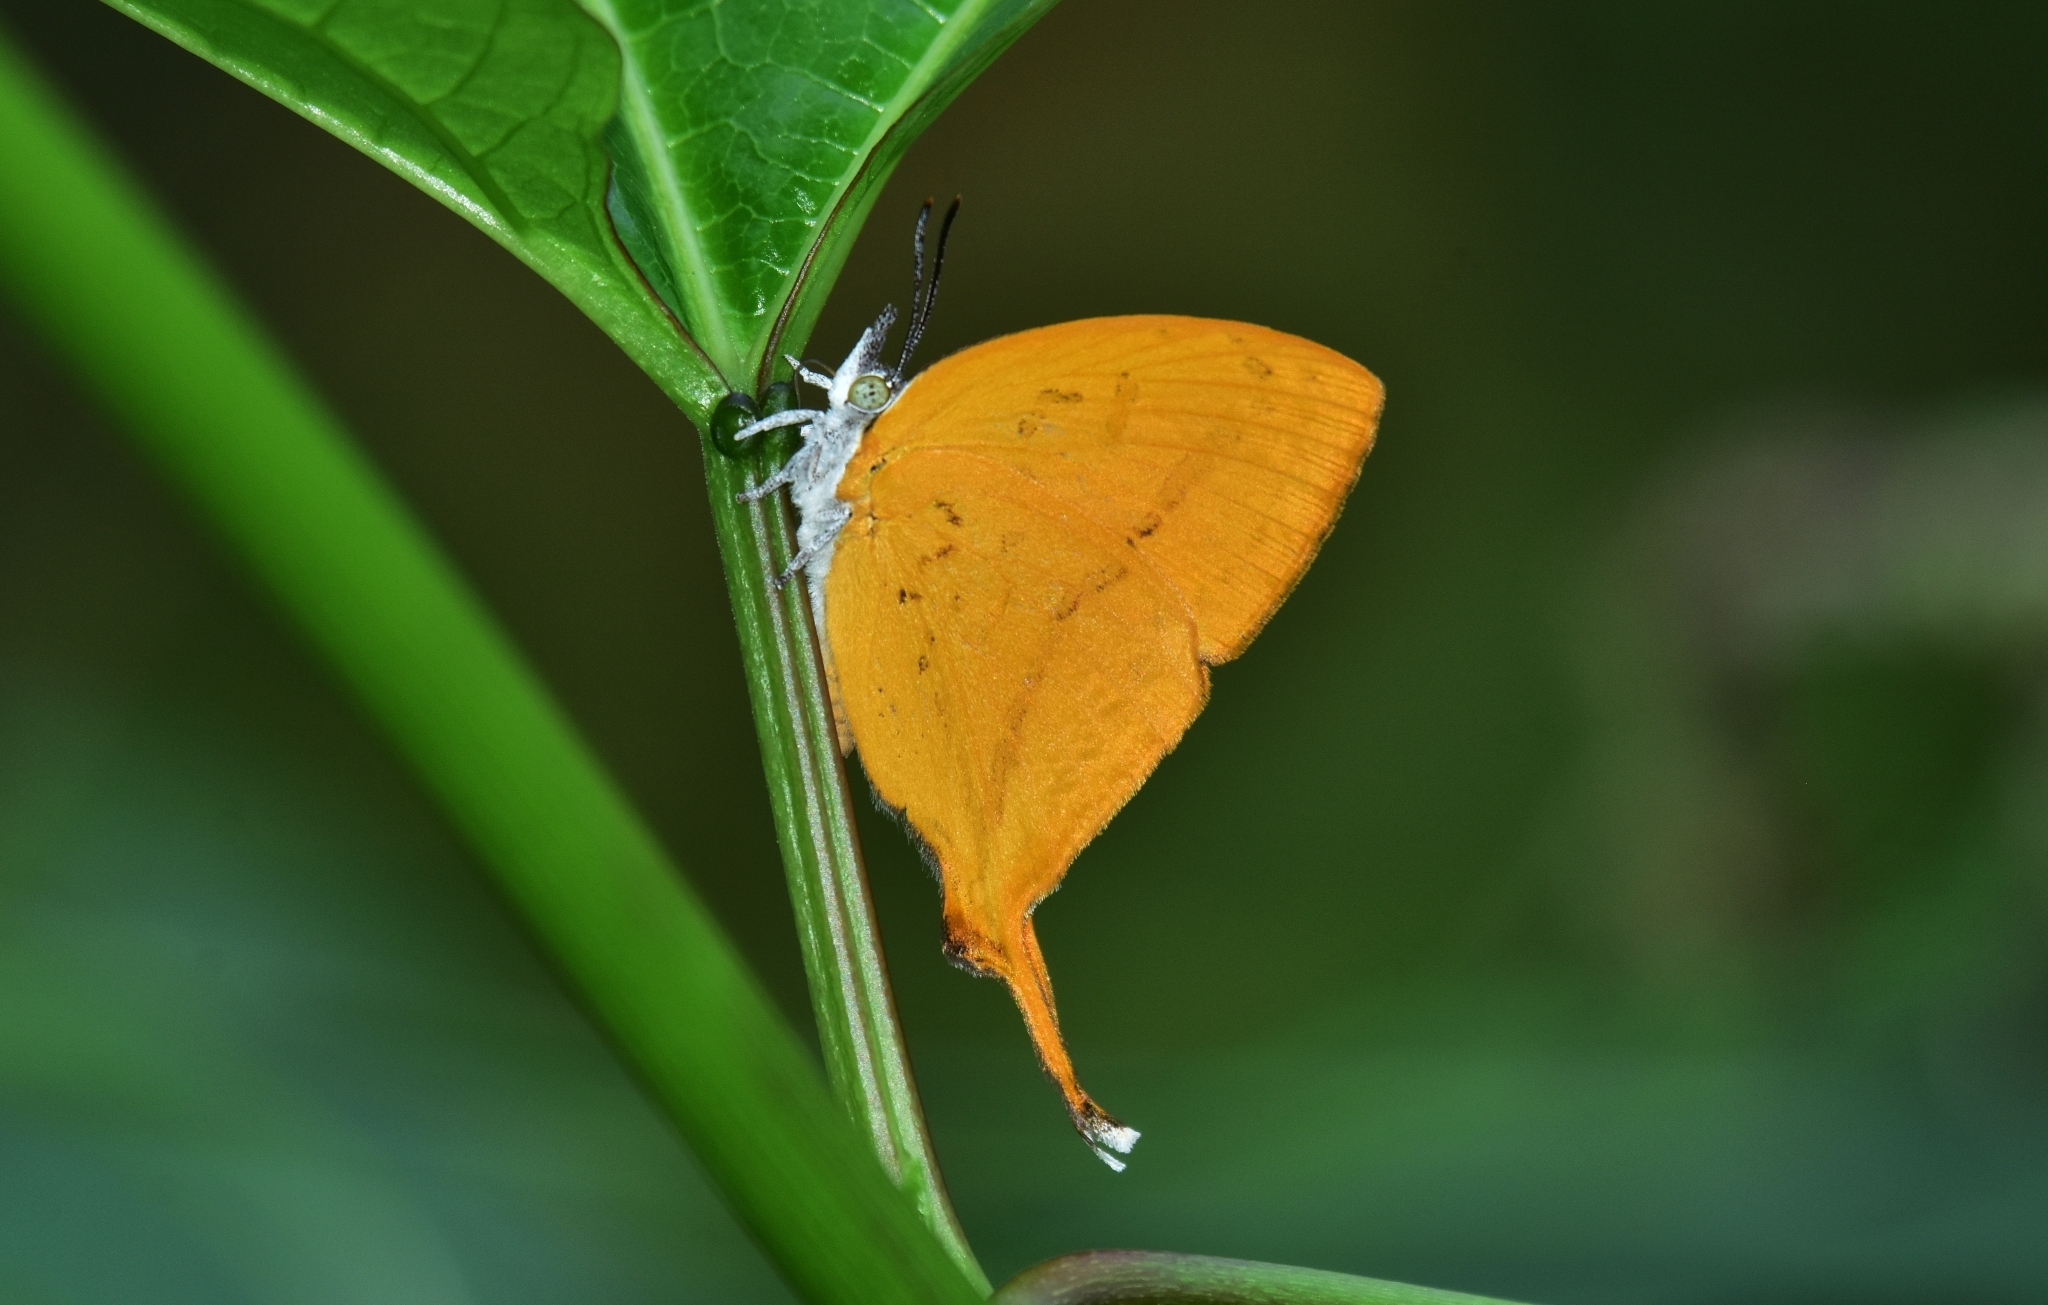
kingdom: Animalia
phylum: Arthropoda
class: Insecta
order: Lepidoptera
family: Lycaenidae
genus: Loxura
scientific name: Loxura atymnus
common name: Common yamfly
